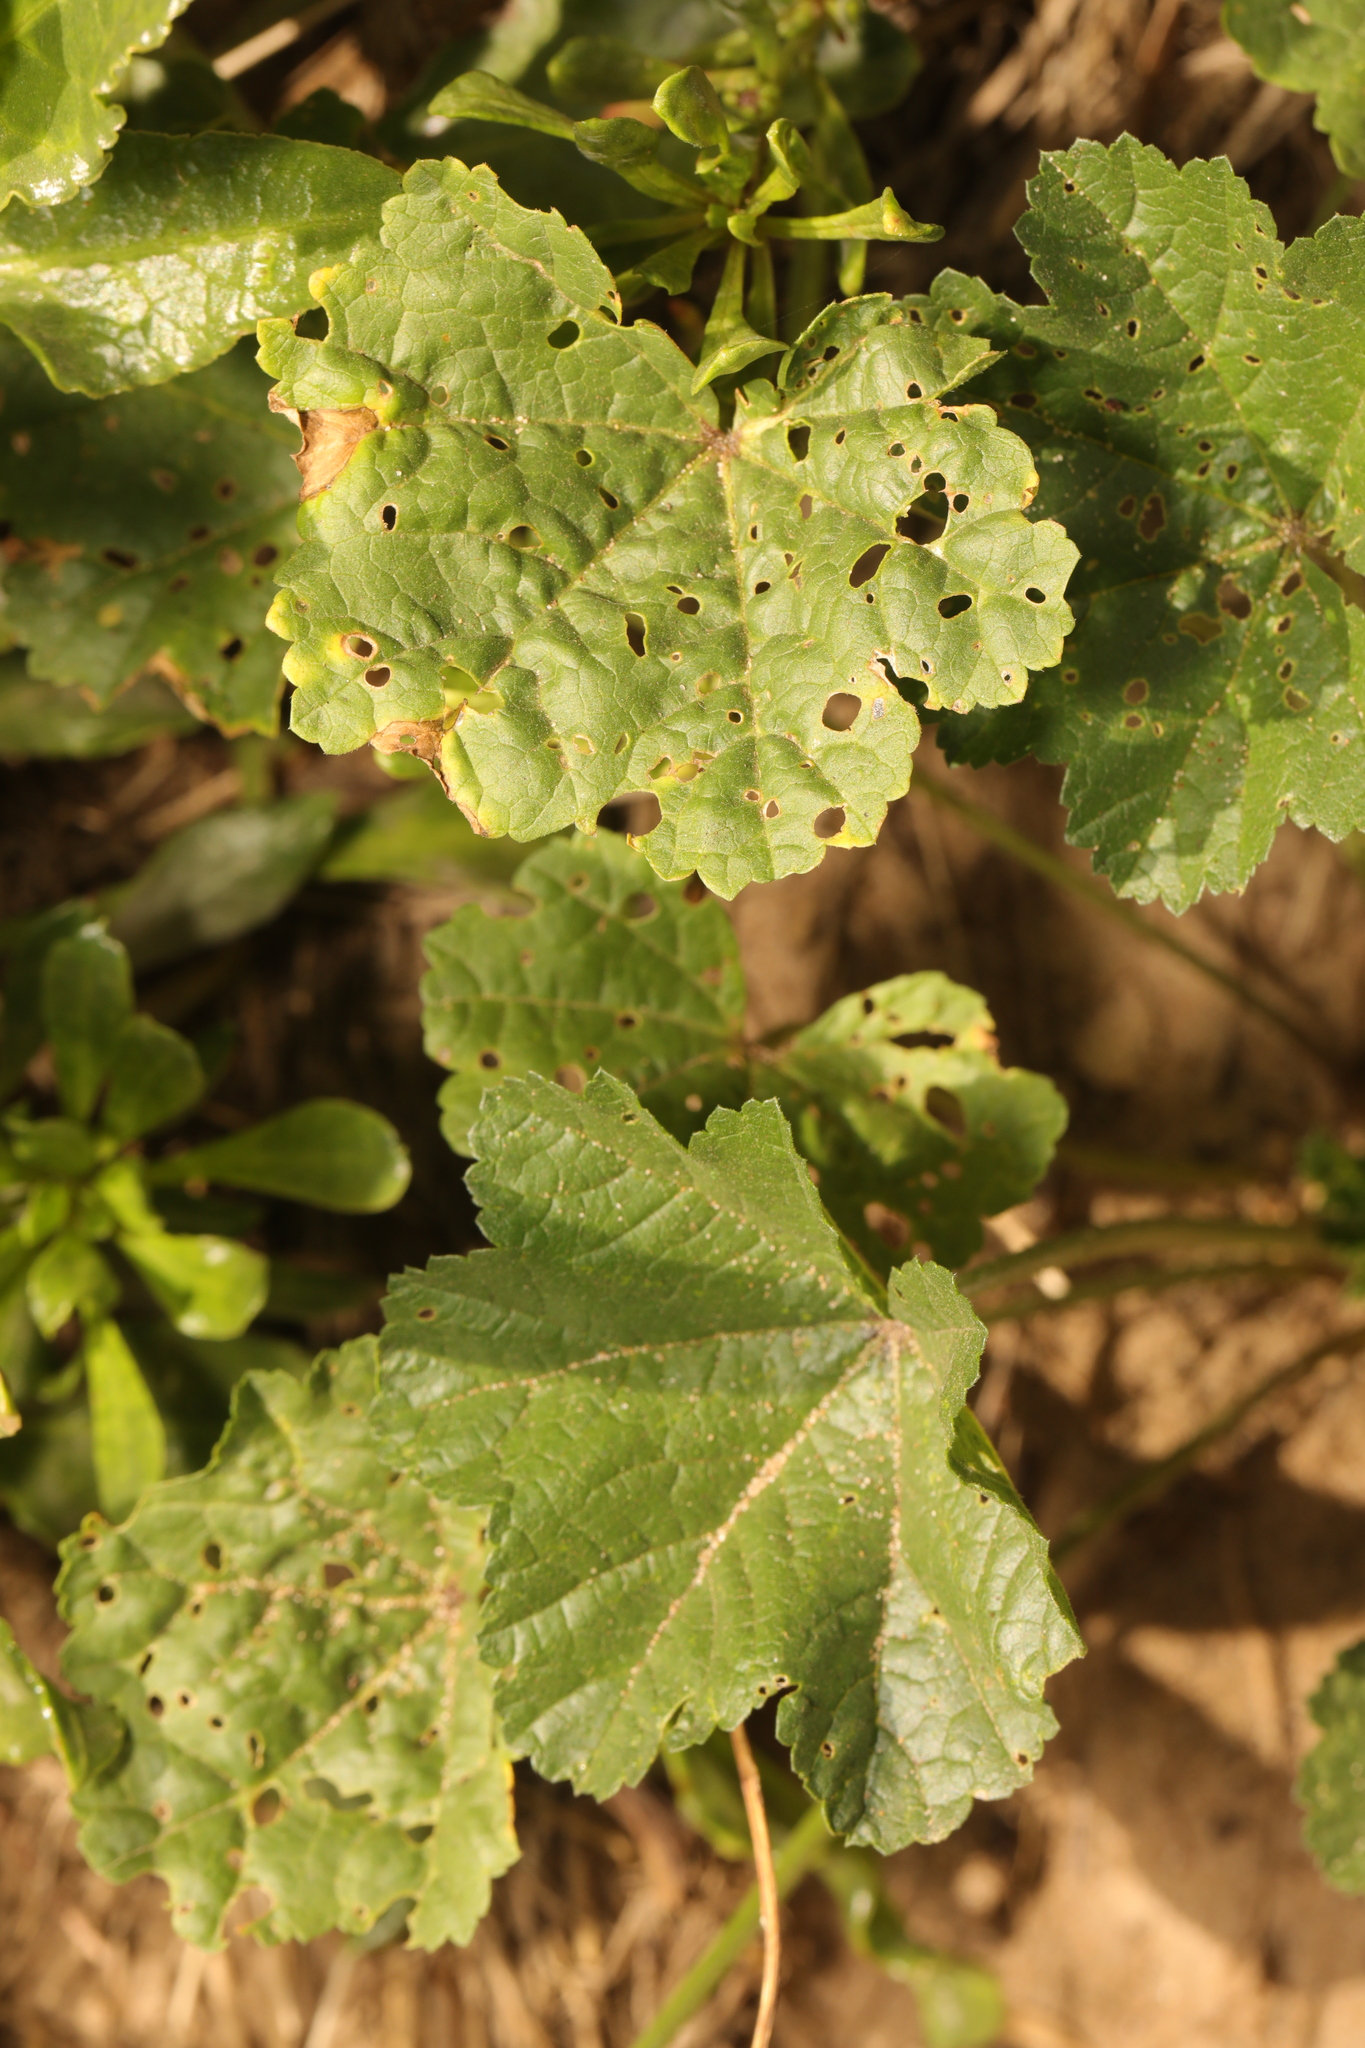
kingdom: Plantae
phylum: Tracheophyta
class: Magnoliopsida
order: Malvales
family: Malvaceae
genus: Malva
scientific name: Malva sylvestris
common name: Common mallow
